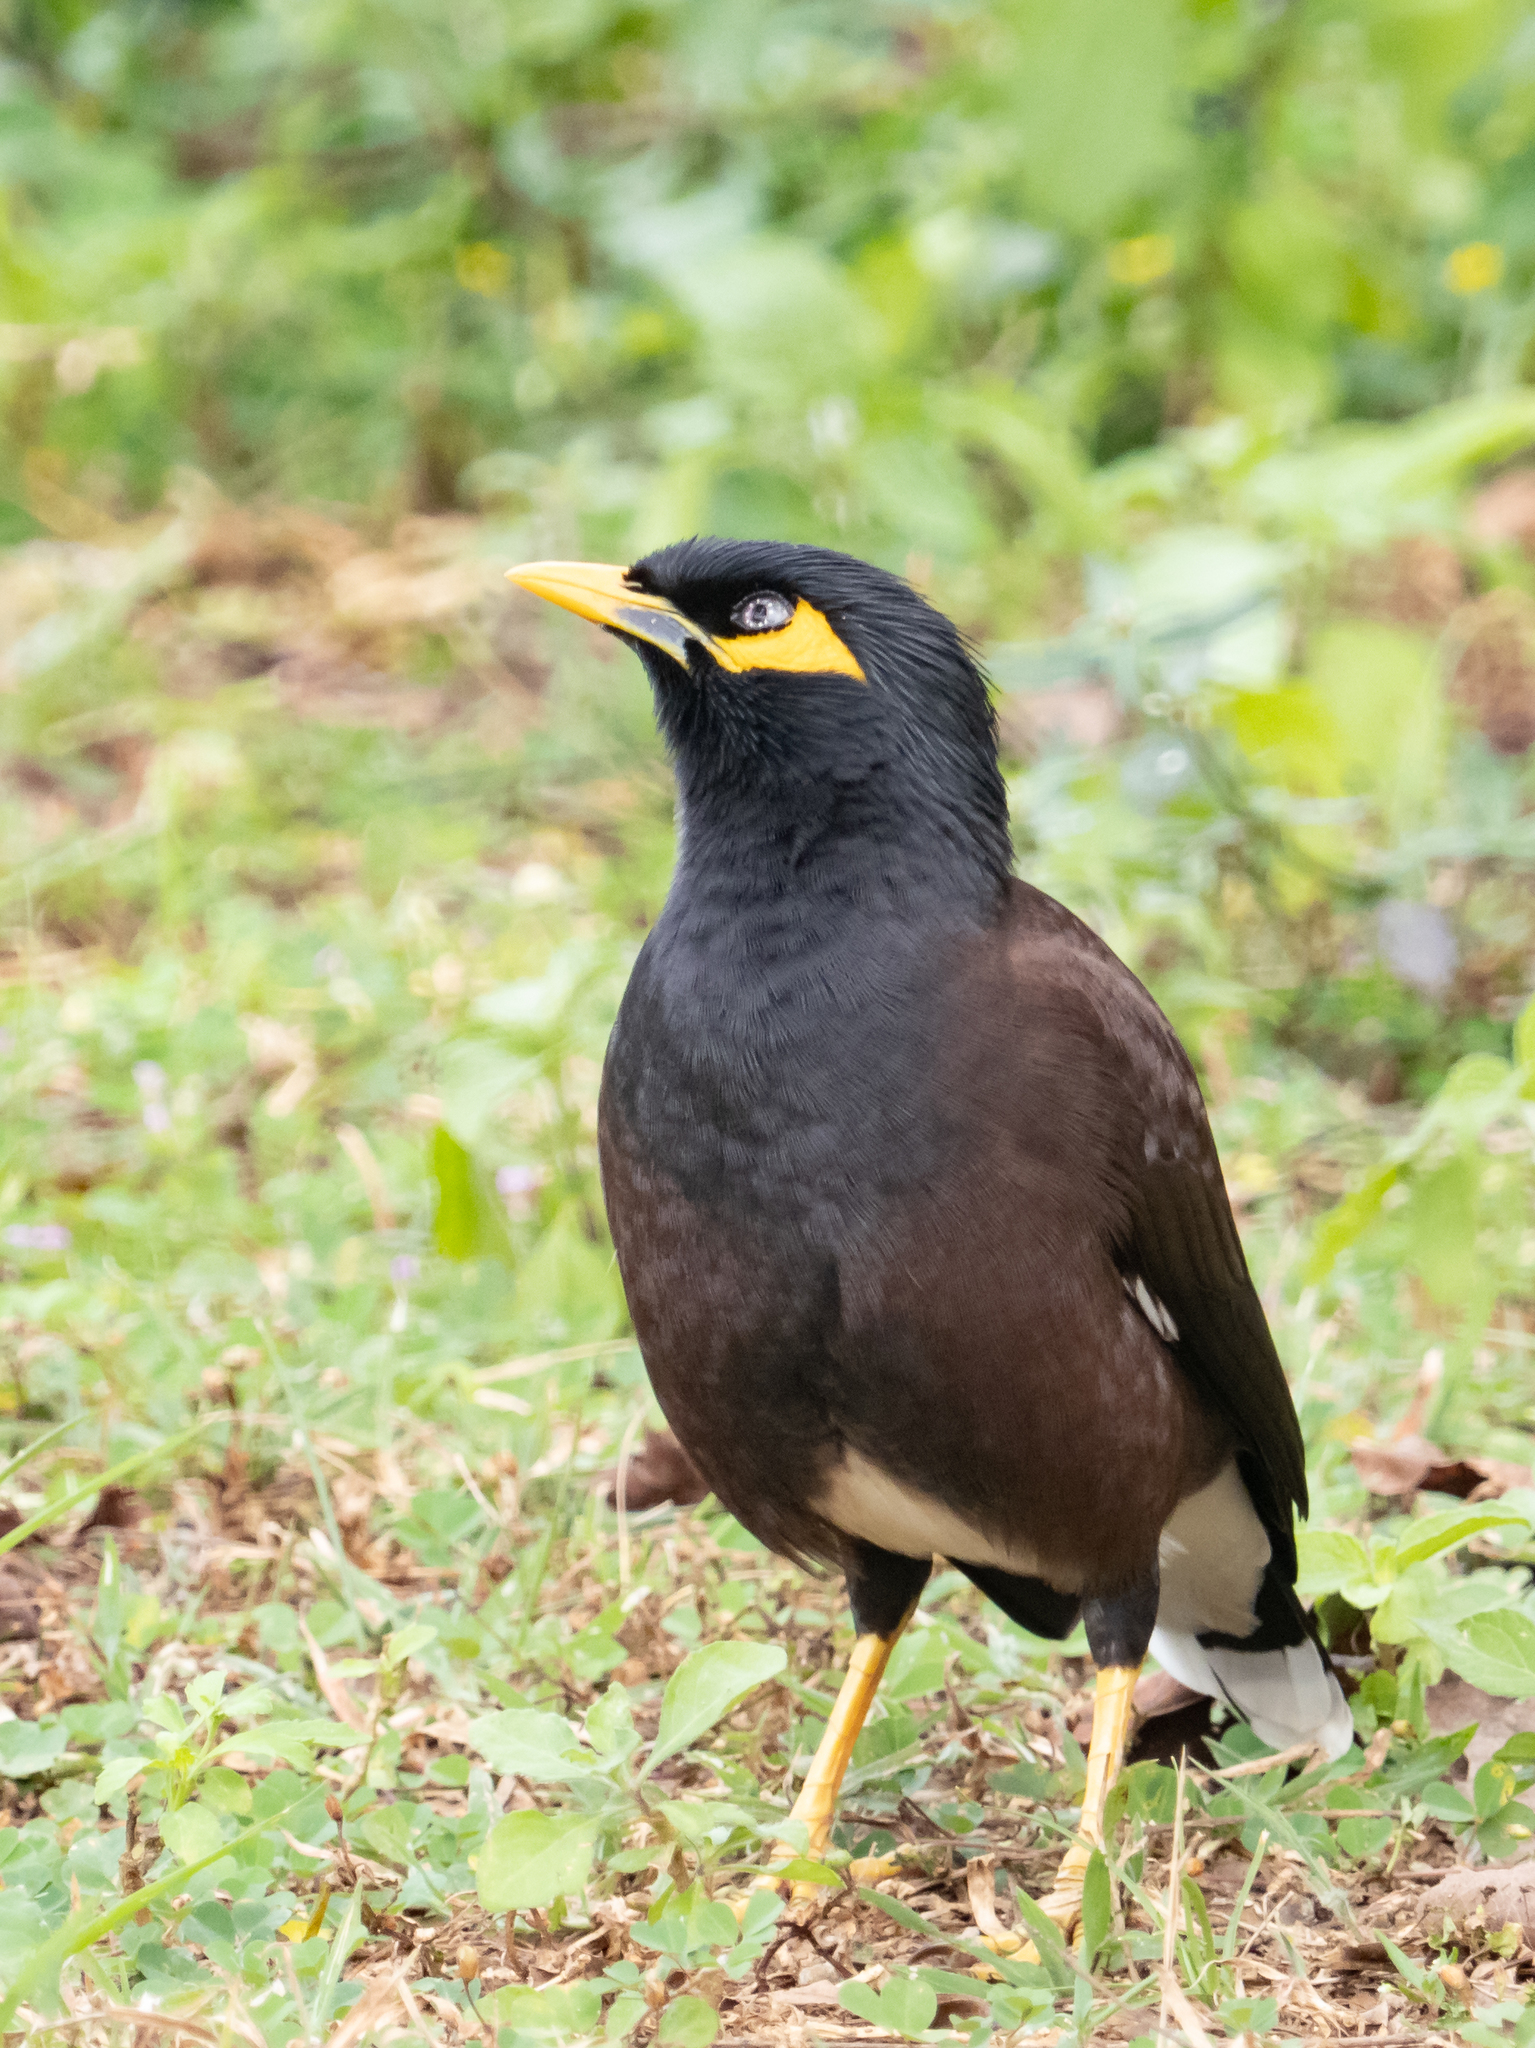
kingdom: Animalia
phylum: Chordata
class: Aves
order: Passeriformes
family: Sturnidae
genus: Acridotheres
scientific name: Acridotheres tristis
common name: Common myna
